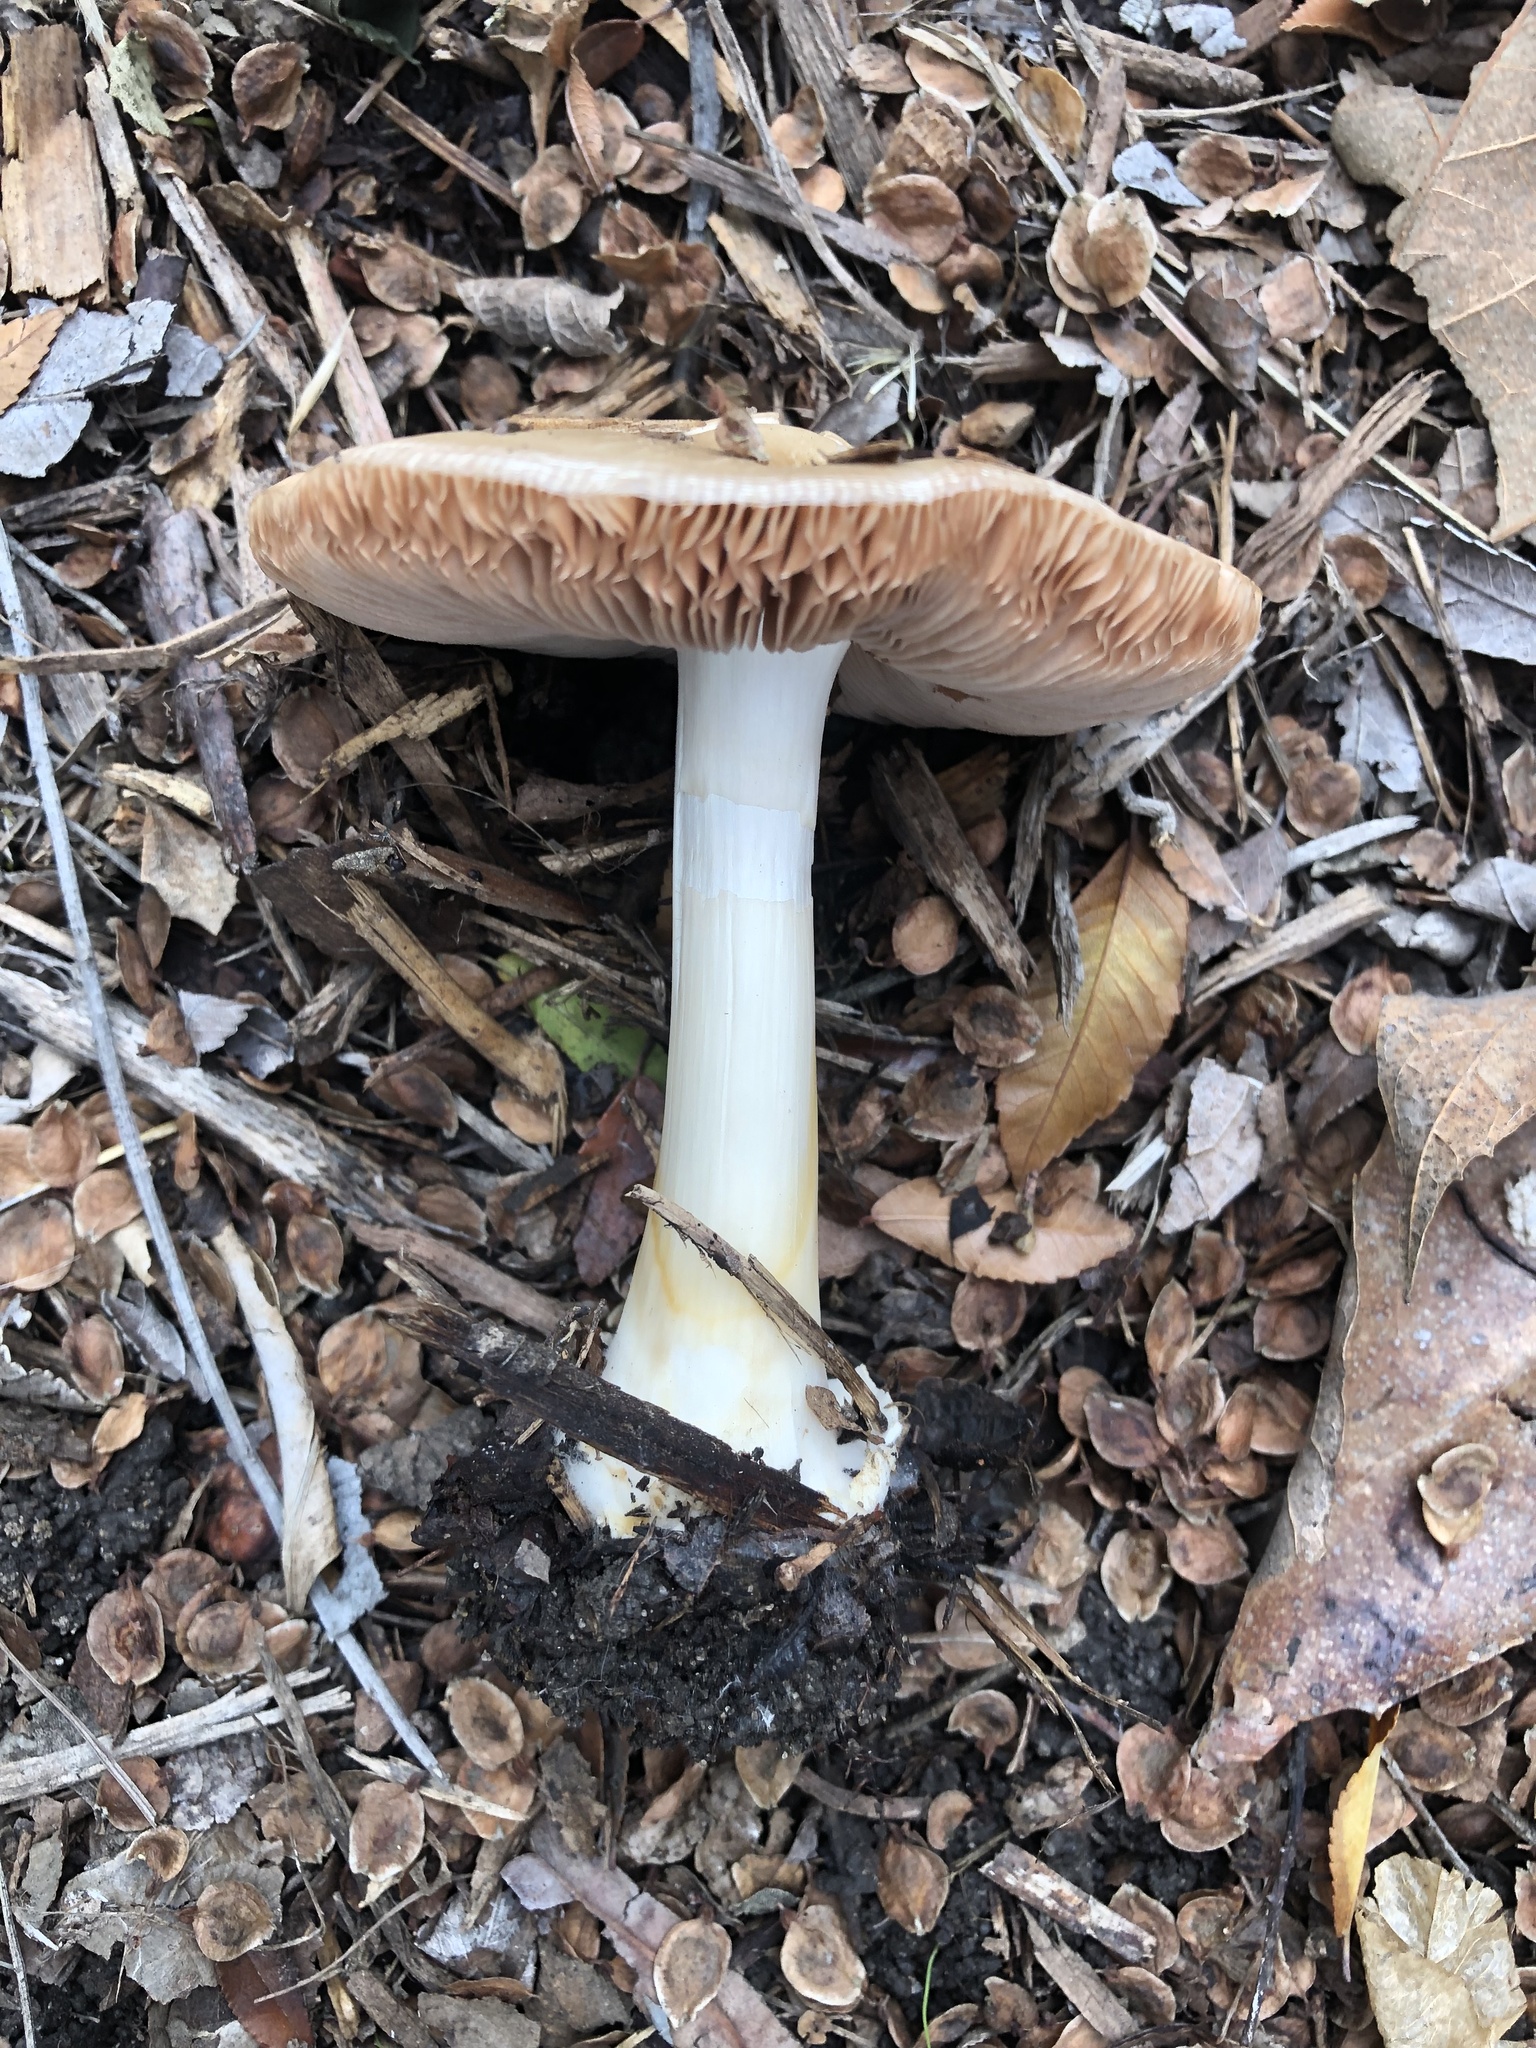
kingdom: Fungi
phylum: Basidiomycota
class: Agaricomycetes
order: Agaricales
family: Pluteaceae
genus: Volvopluteus
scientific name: Volvopluteus gloiocephalus
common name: Stubble rosegill
